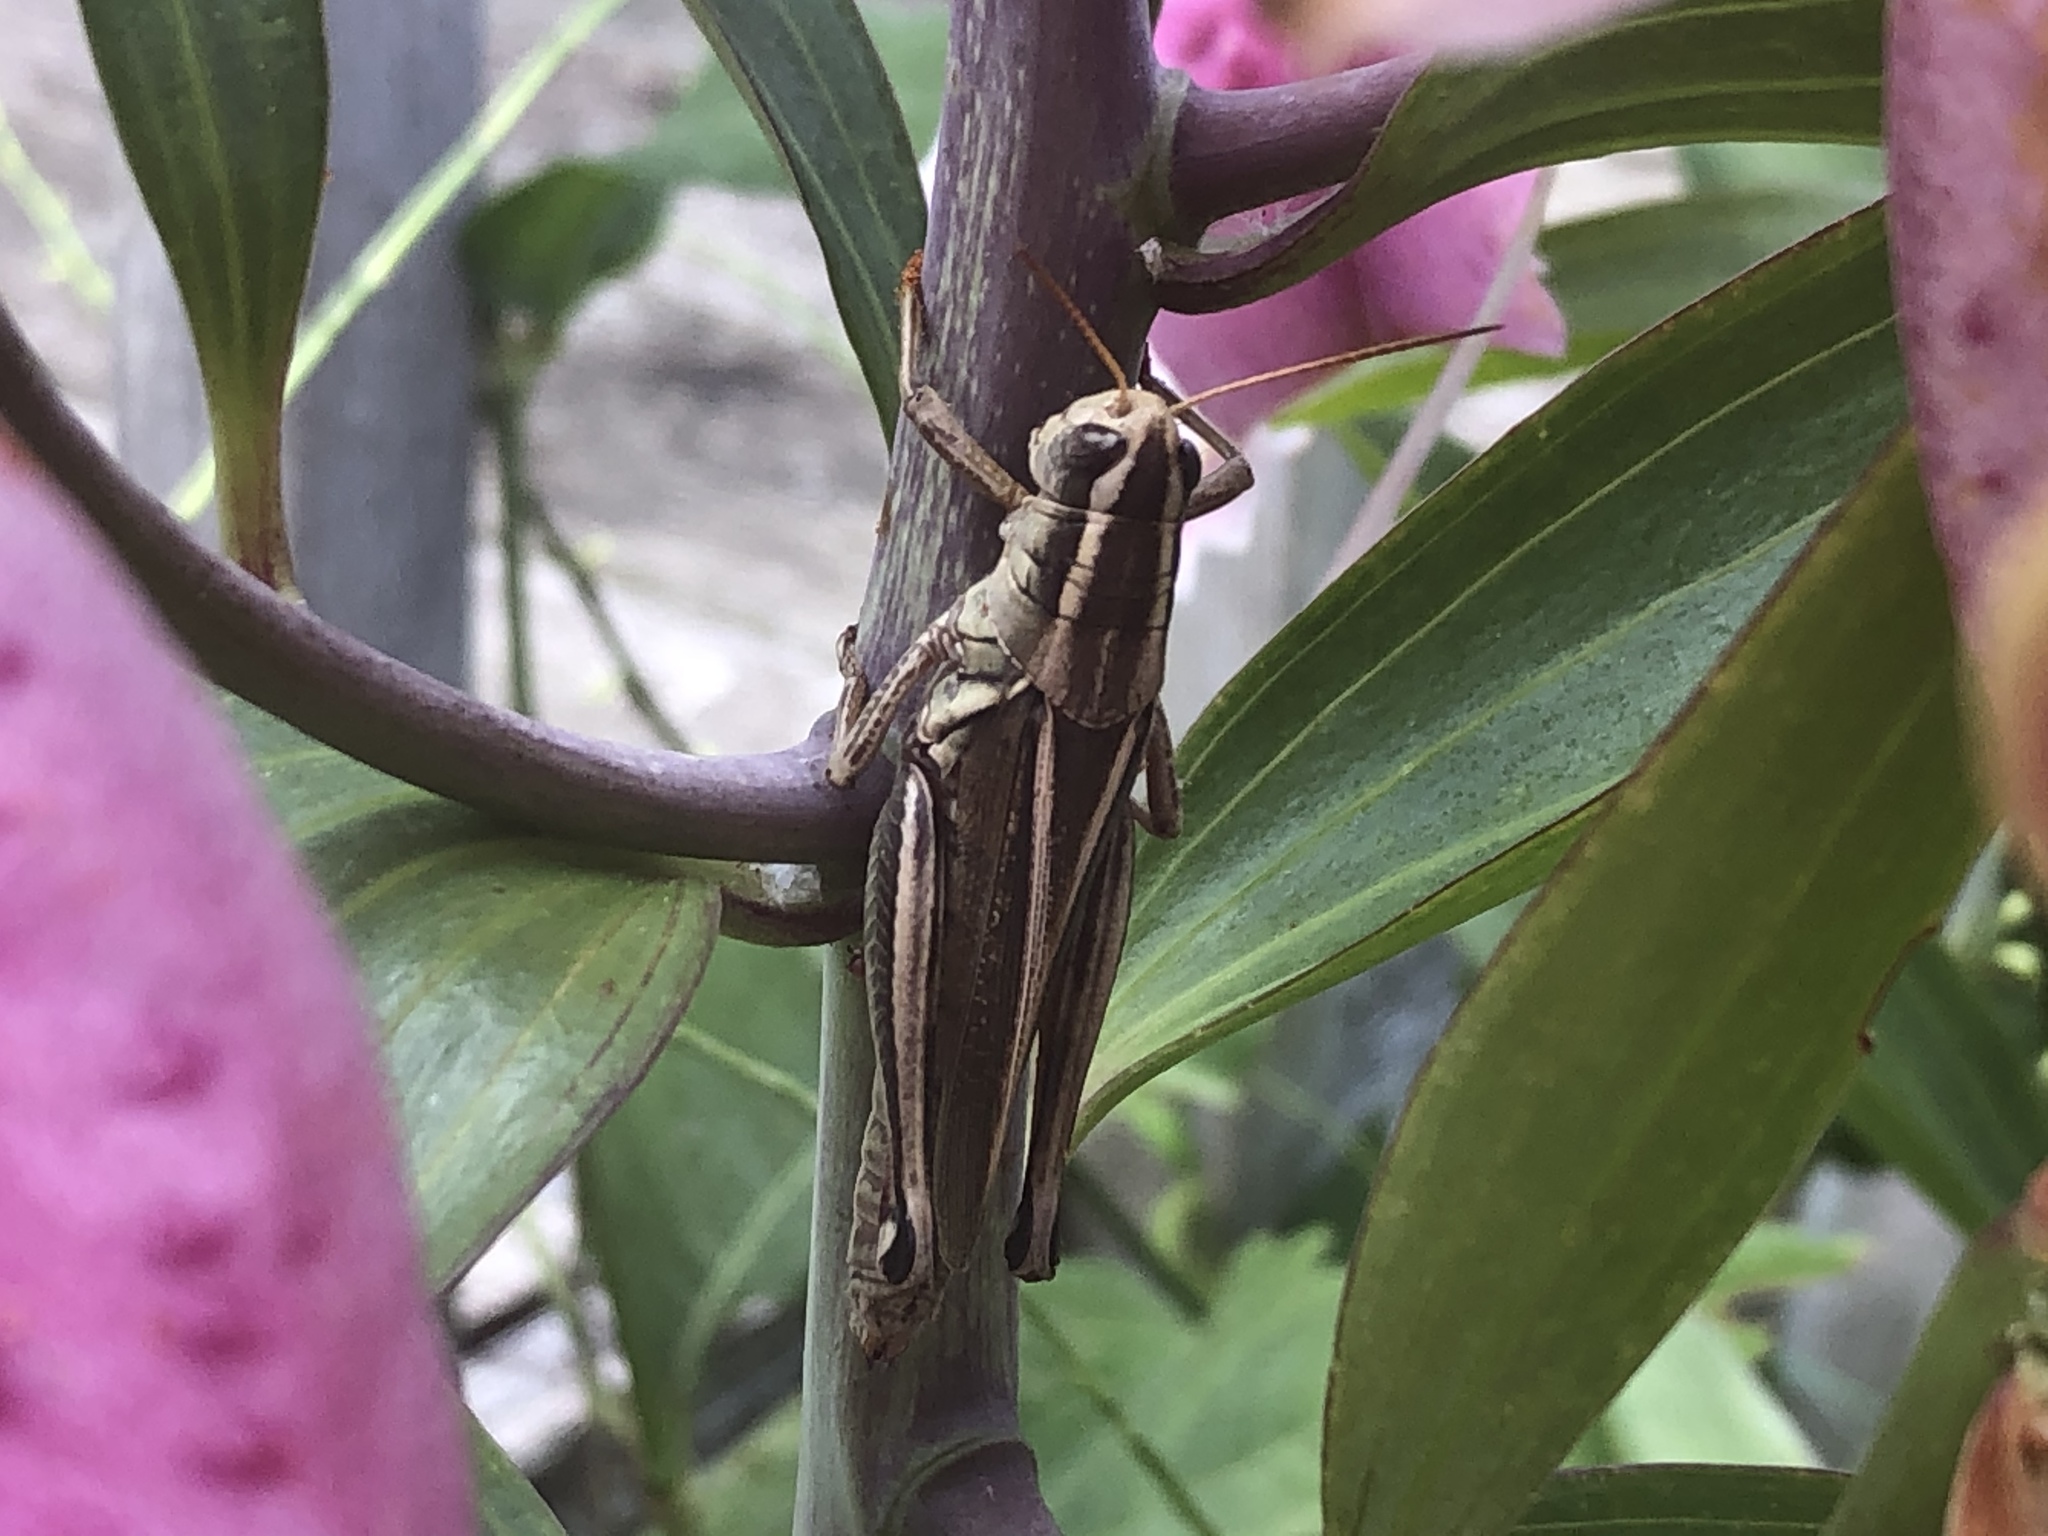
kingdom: Animalia
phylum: Arthropoda
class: Insecta
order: Orthoptera
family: Acrididae
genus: Melanoplus
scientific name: Melanoplus bivittatus
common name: Two-striped grasshopper
